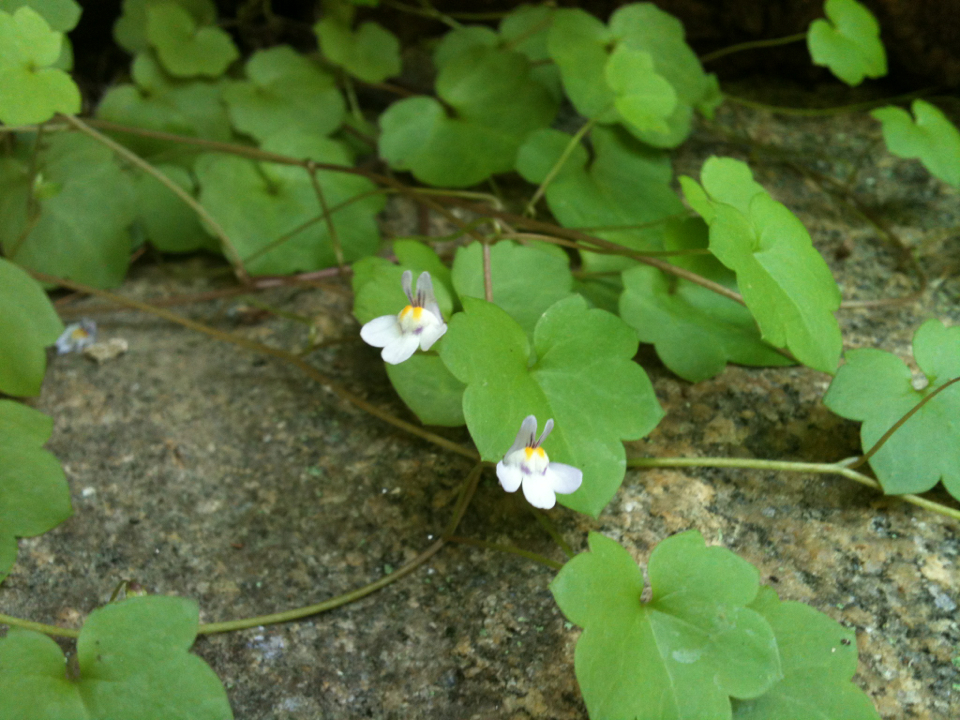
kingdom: Plantae
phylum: Tracheophyta
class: Magnoliopsida
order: Lamiales
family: Plantaginaceae
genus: Cymbalaria
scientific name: Cymbalaria muralis
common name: Ivy-leaved toadflax
